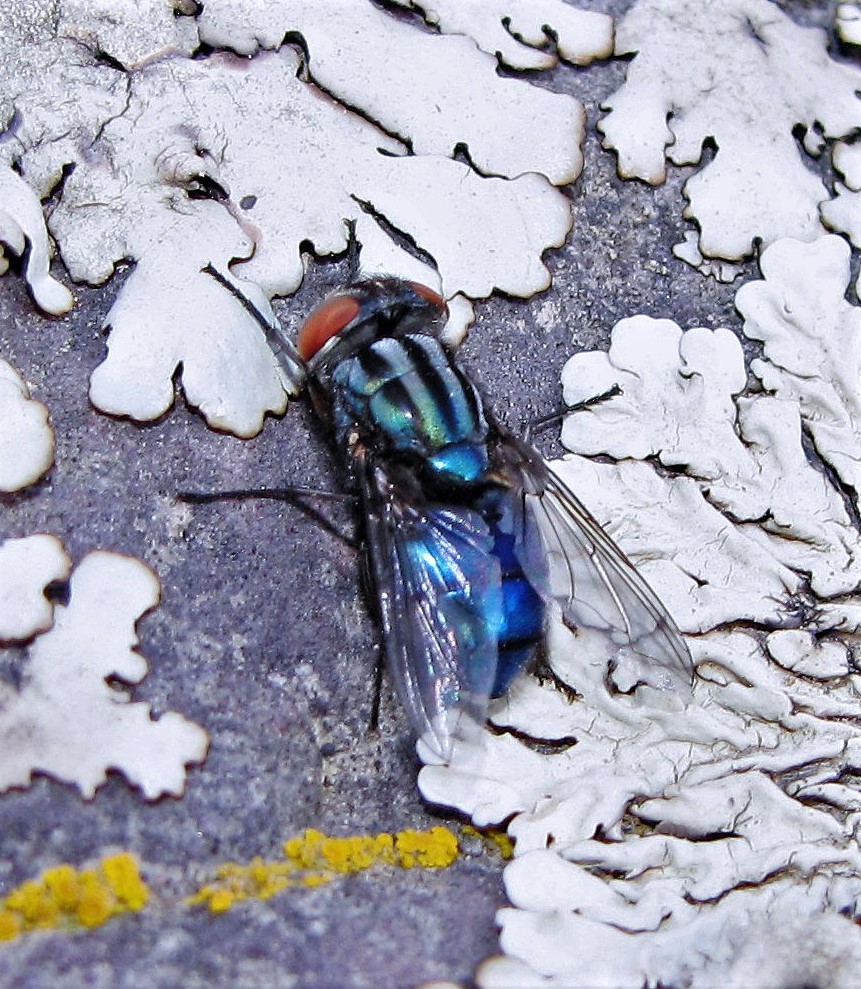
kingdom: Animalia
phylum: Arthropoda
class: Insecta
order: Diptera
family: Calliphoridae
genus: Compsomyiops
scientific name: Compsomyiops verena
